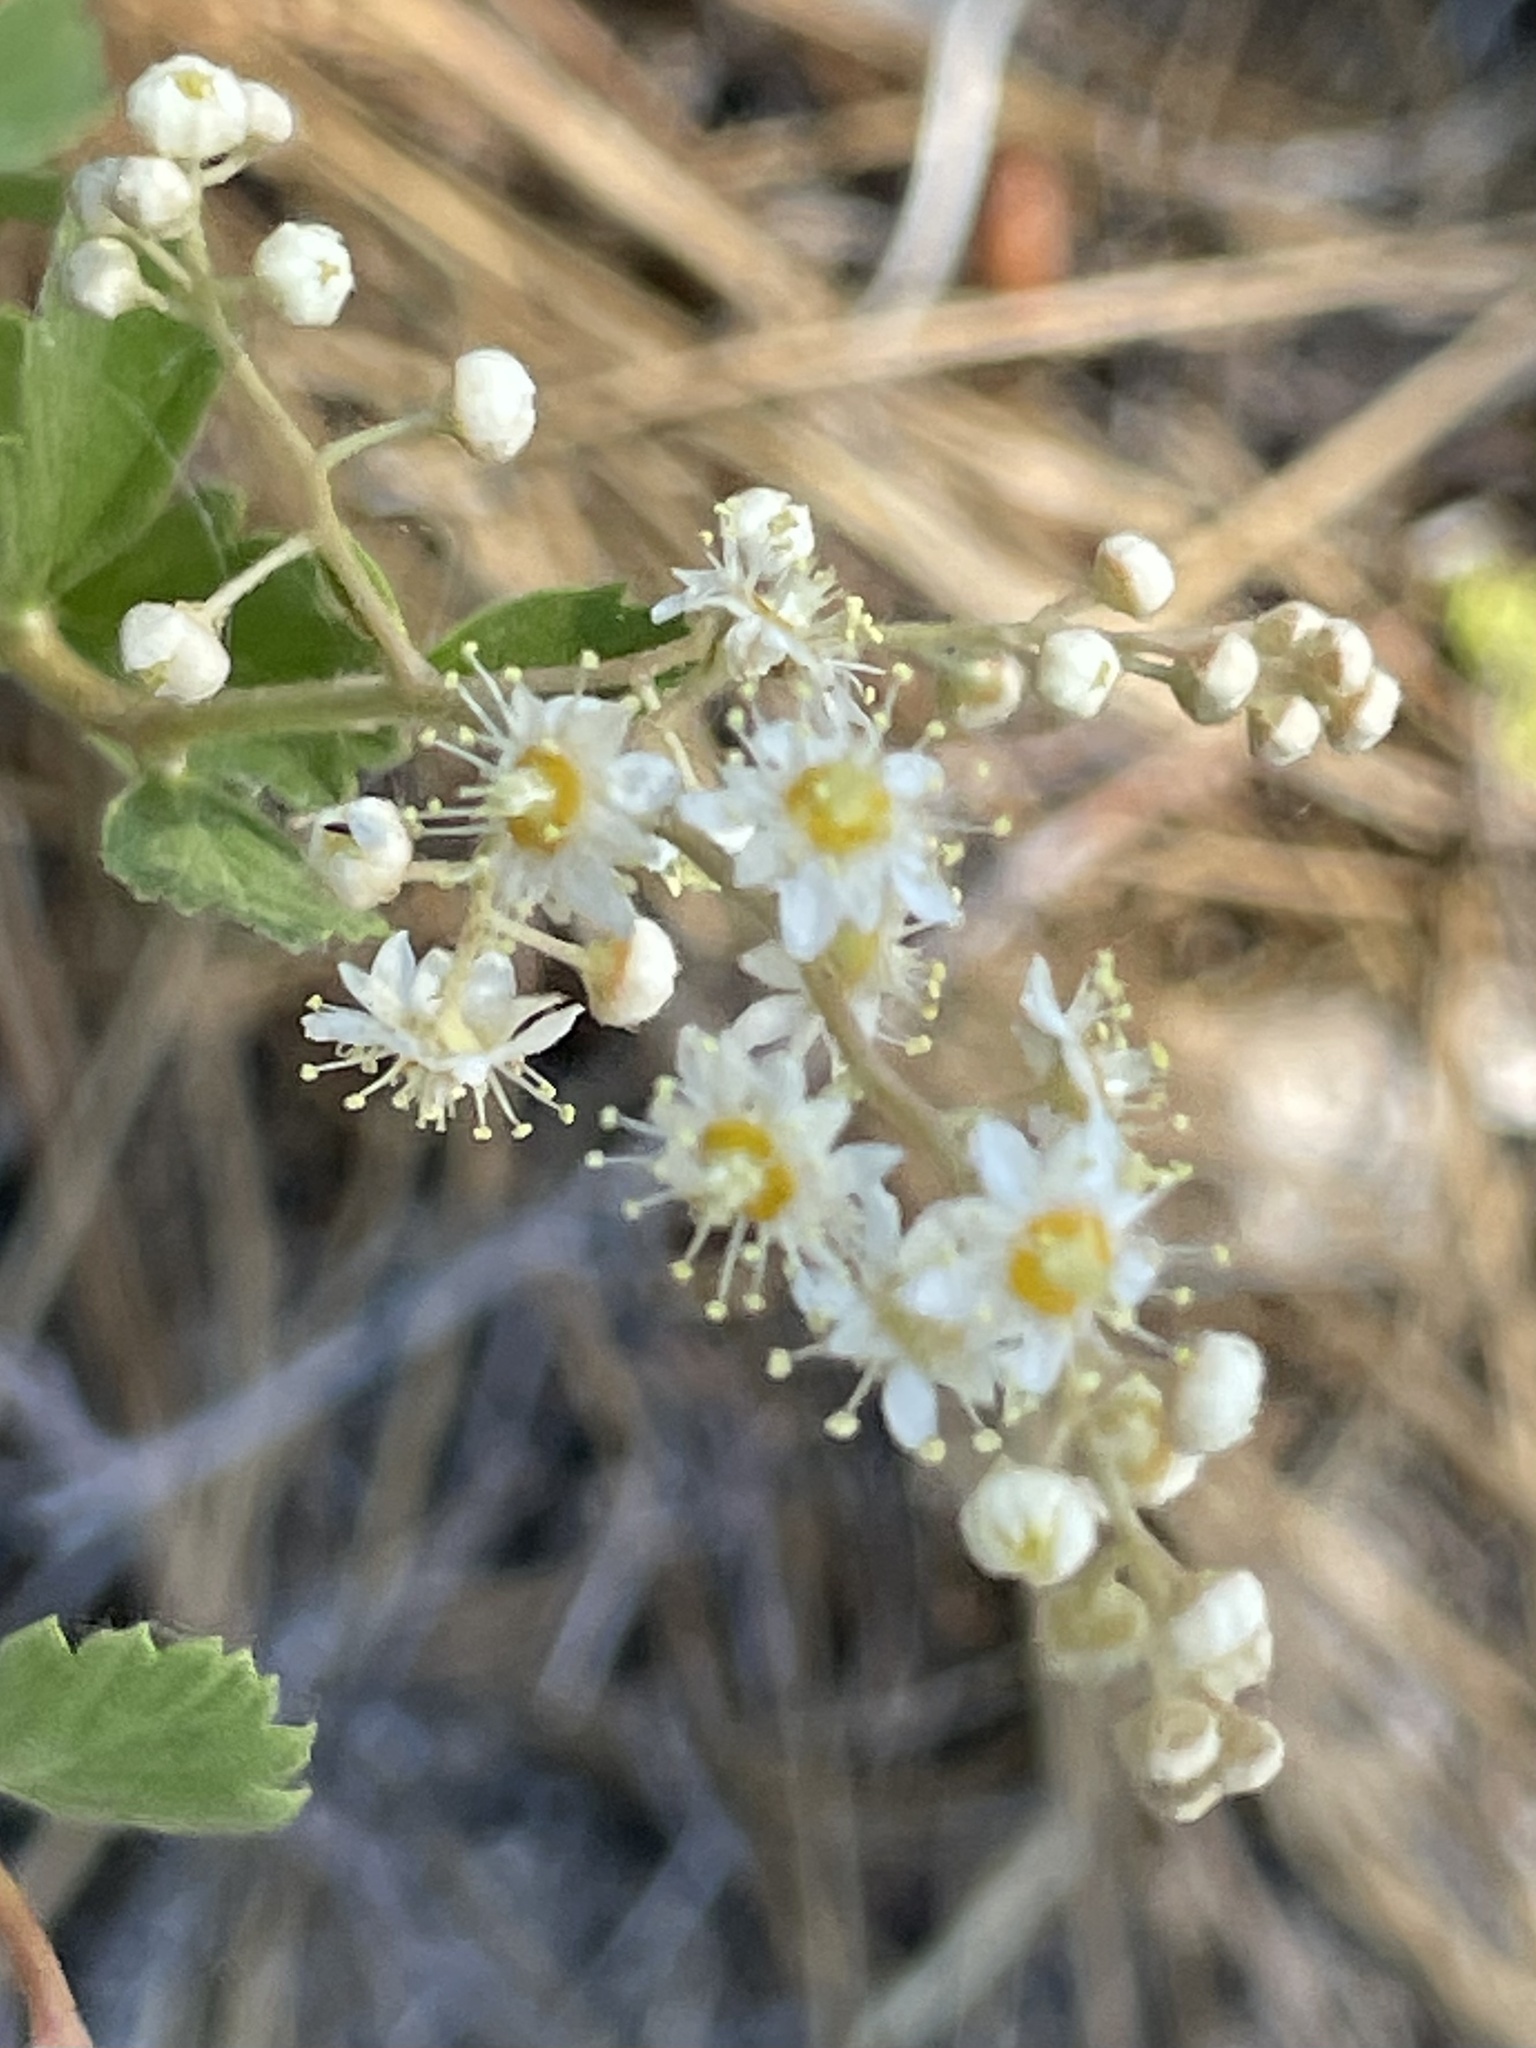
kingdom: Plantae
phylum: Tracheophyta
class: Magnoliopsida
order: Rosales
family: Rosaceae
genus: Holodiscus
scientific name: Holodiscus discolor
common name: Oceanspray
